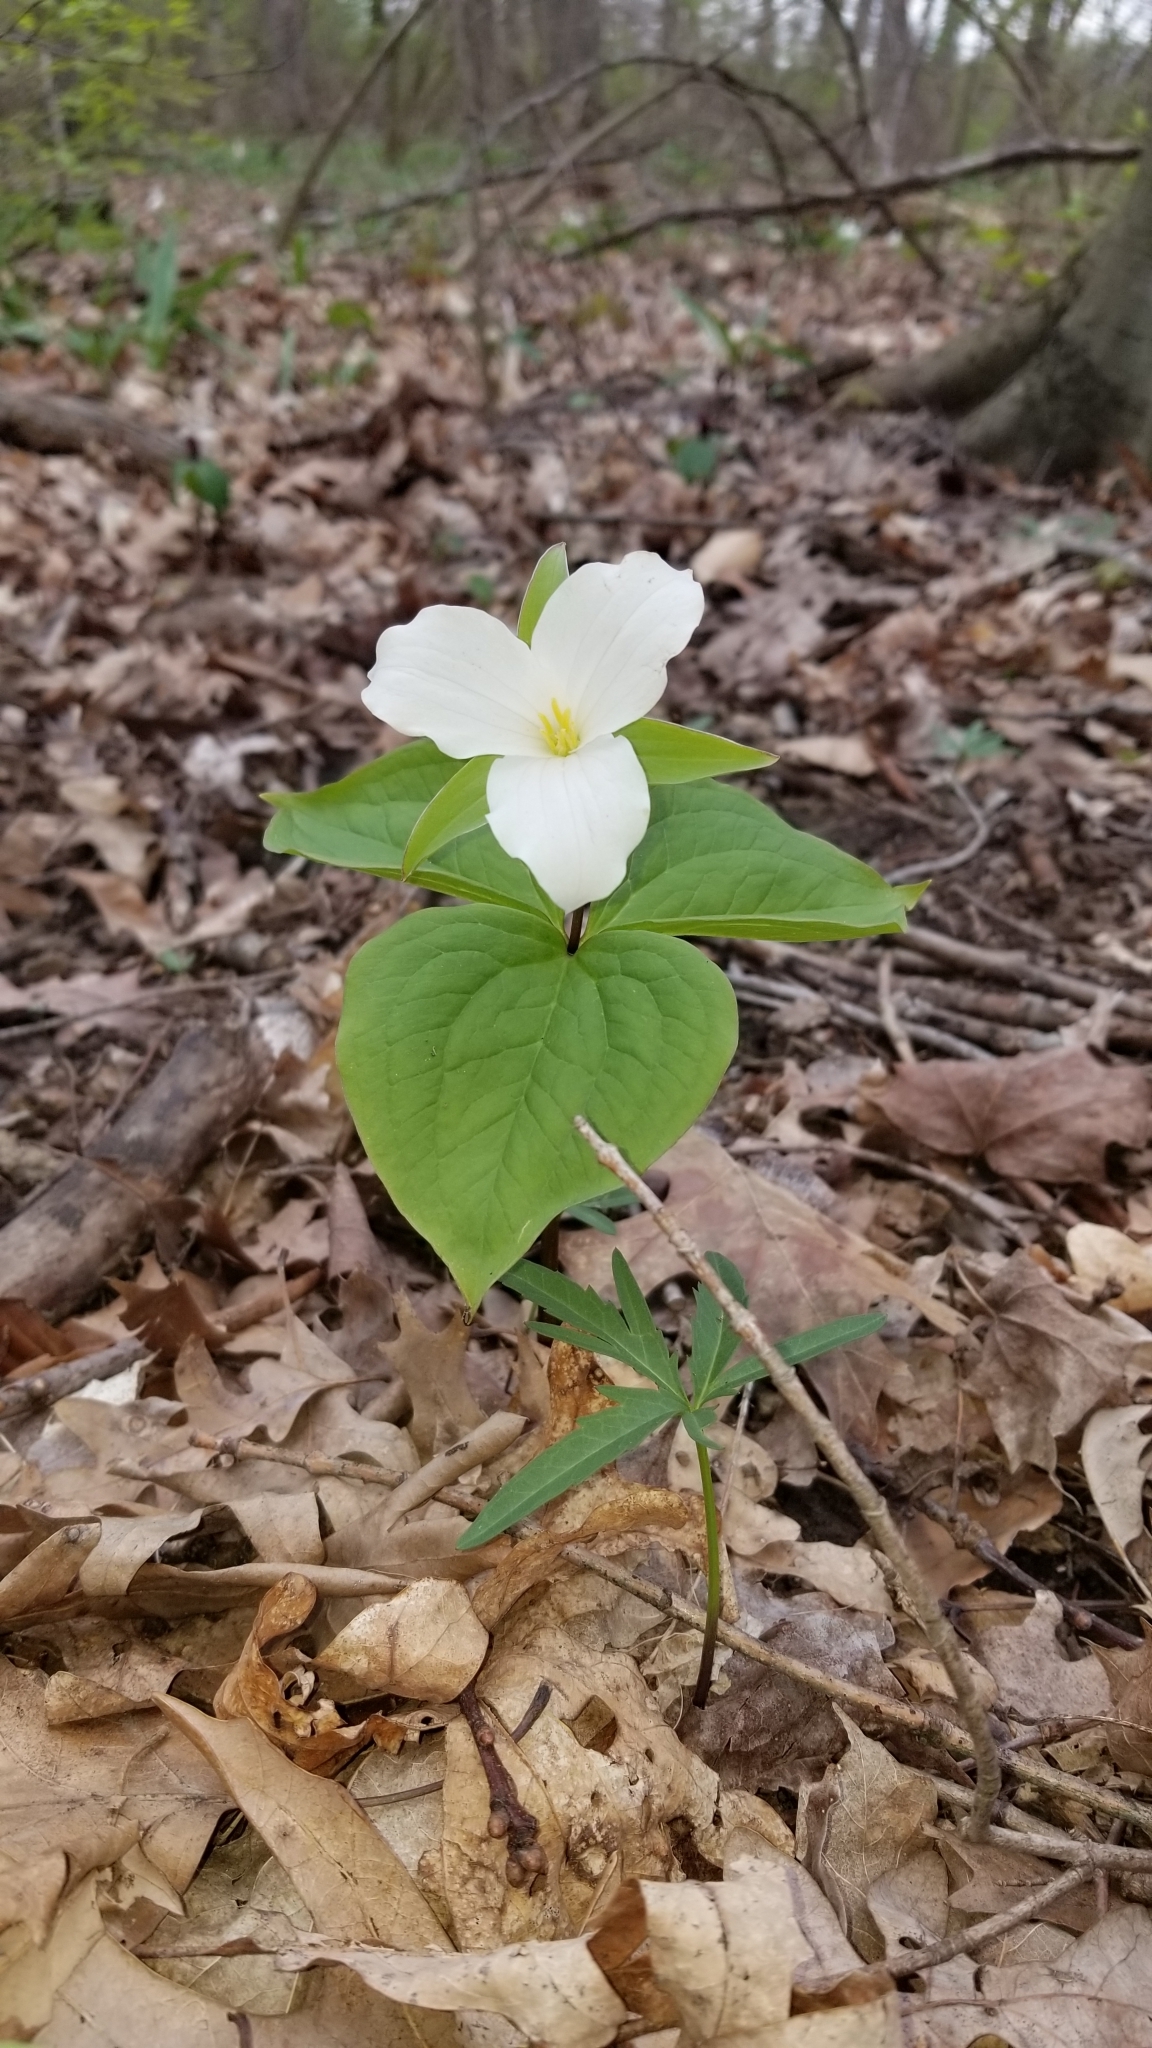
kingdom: Plantae
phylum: Tracheophyta
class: Liliopsida
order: Liliales
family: Melanthiaceae
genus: Trillium
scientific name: Trillium grandiflorum
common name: Great white trillium
